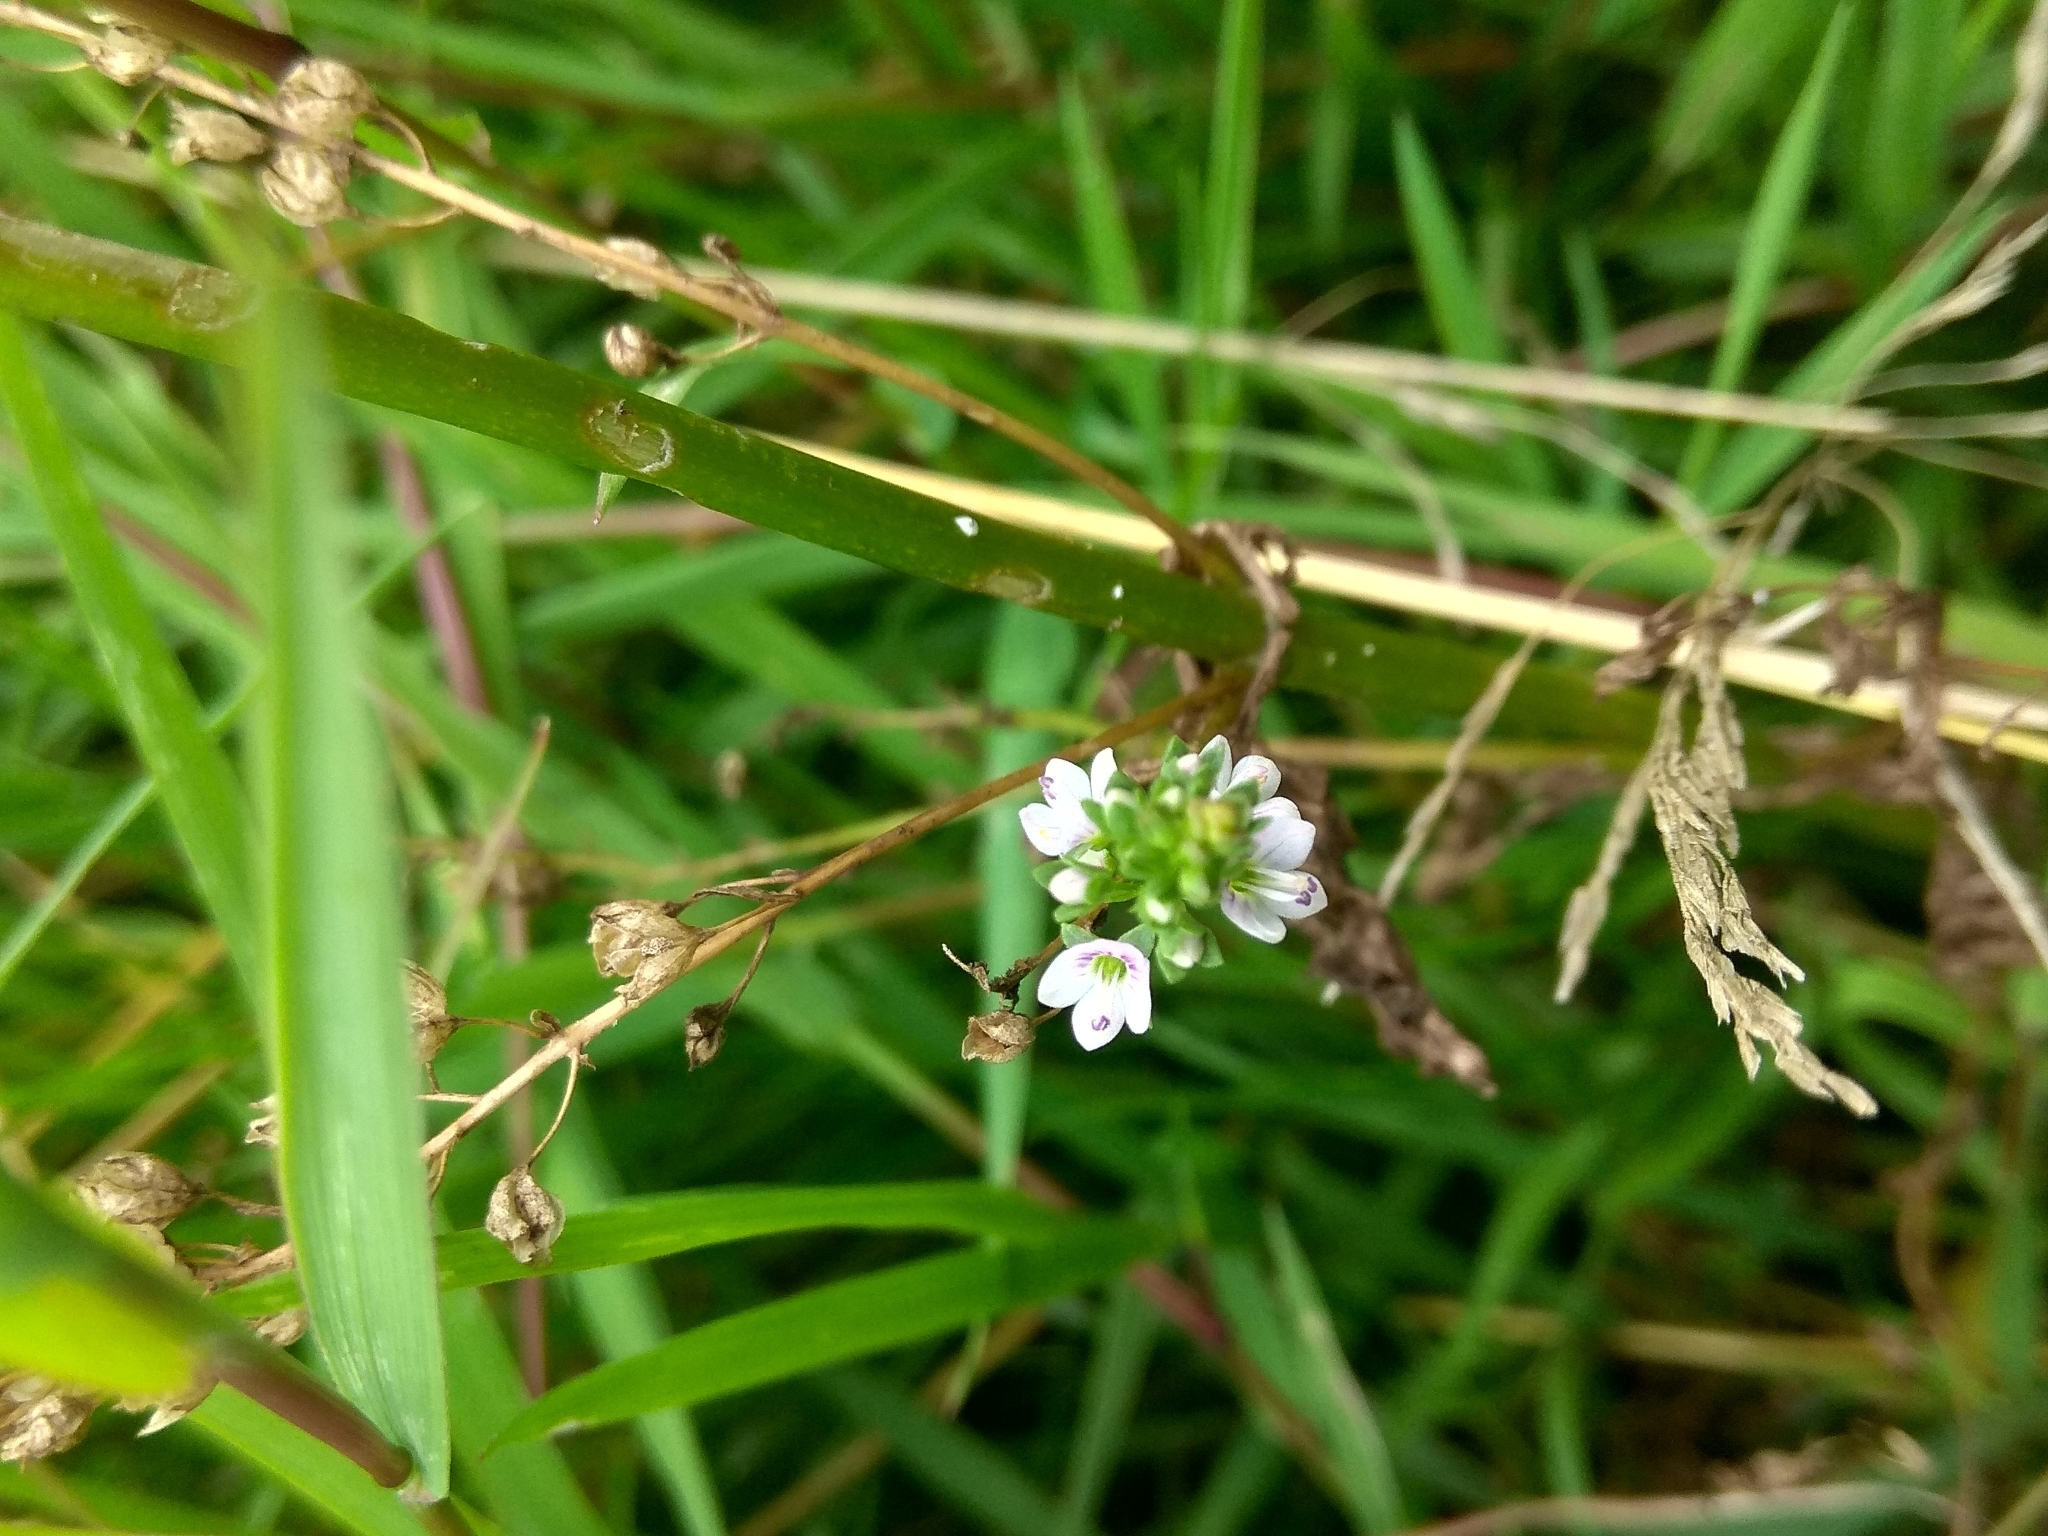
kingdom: Plantae
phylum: Tracheophyta
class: Magnoliopsida
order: Lamiales
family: Plantaginaceae
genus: Veronica
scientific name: Veronica anagallis-aquatica
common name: Water speedwell
